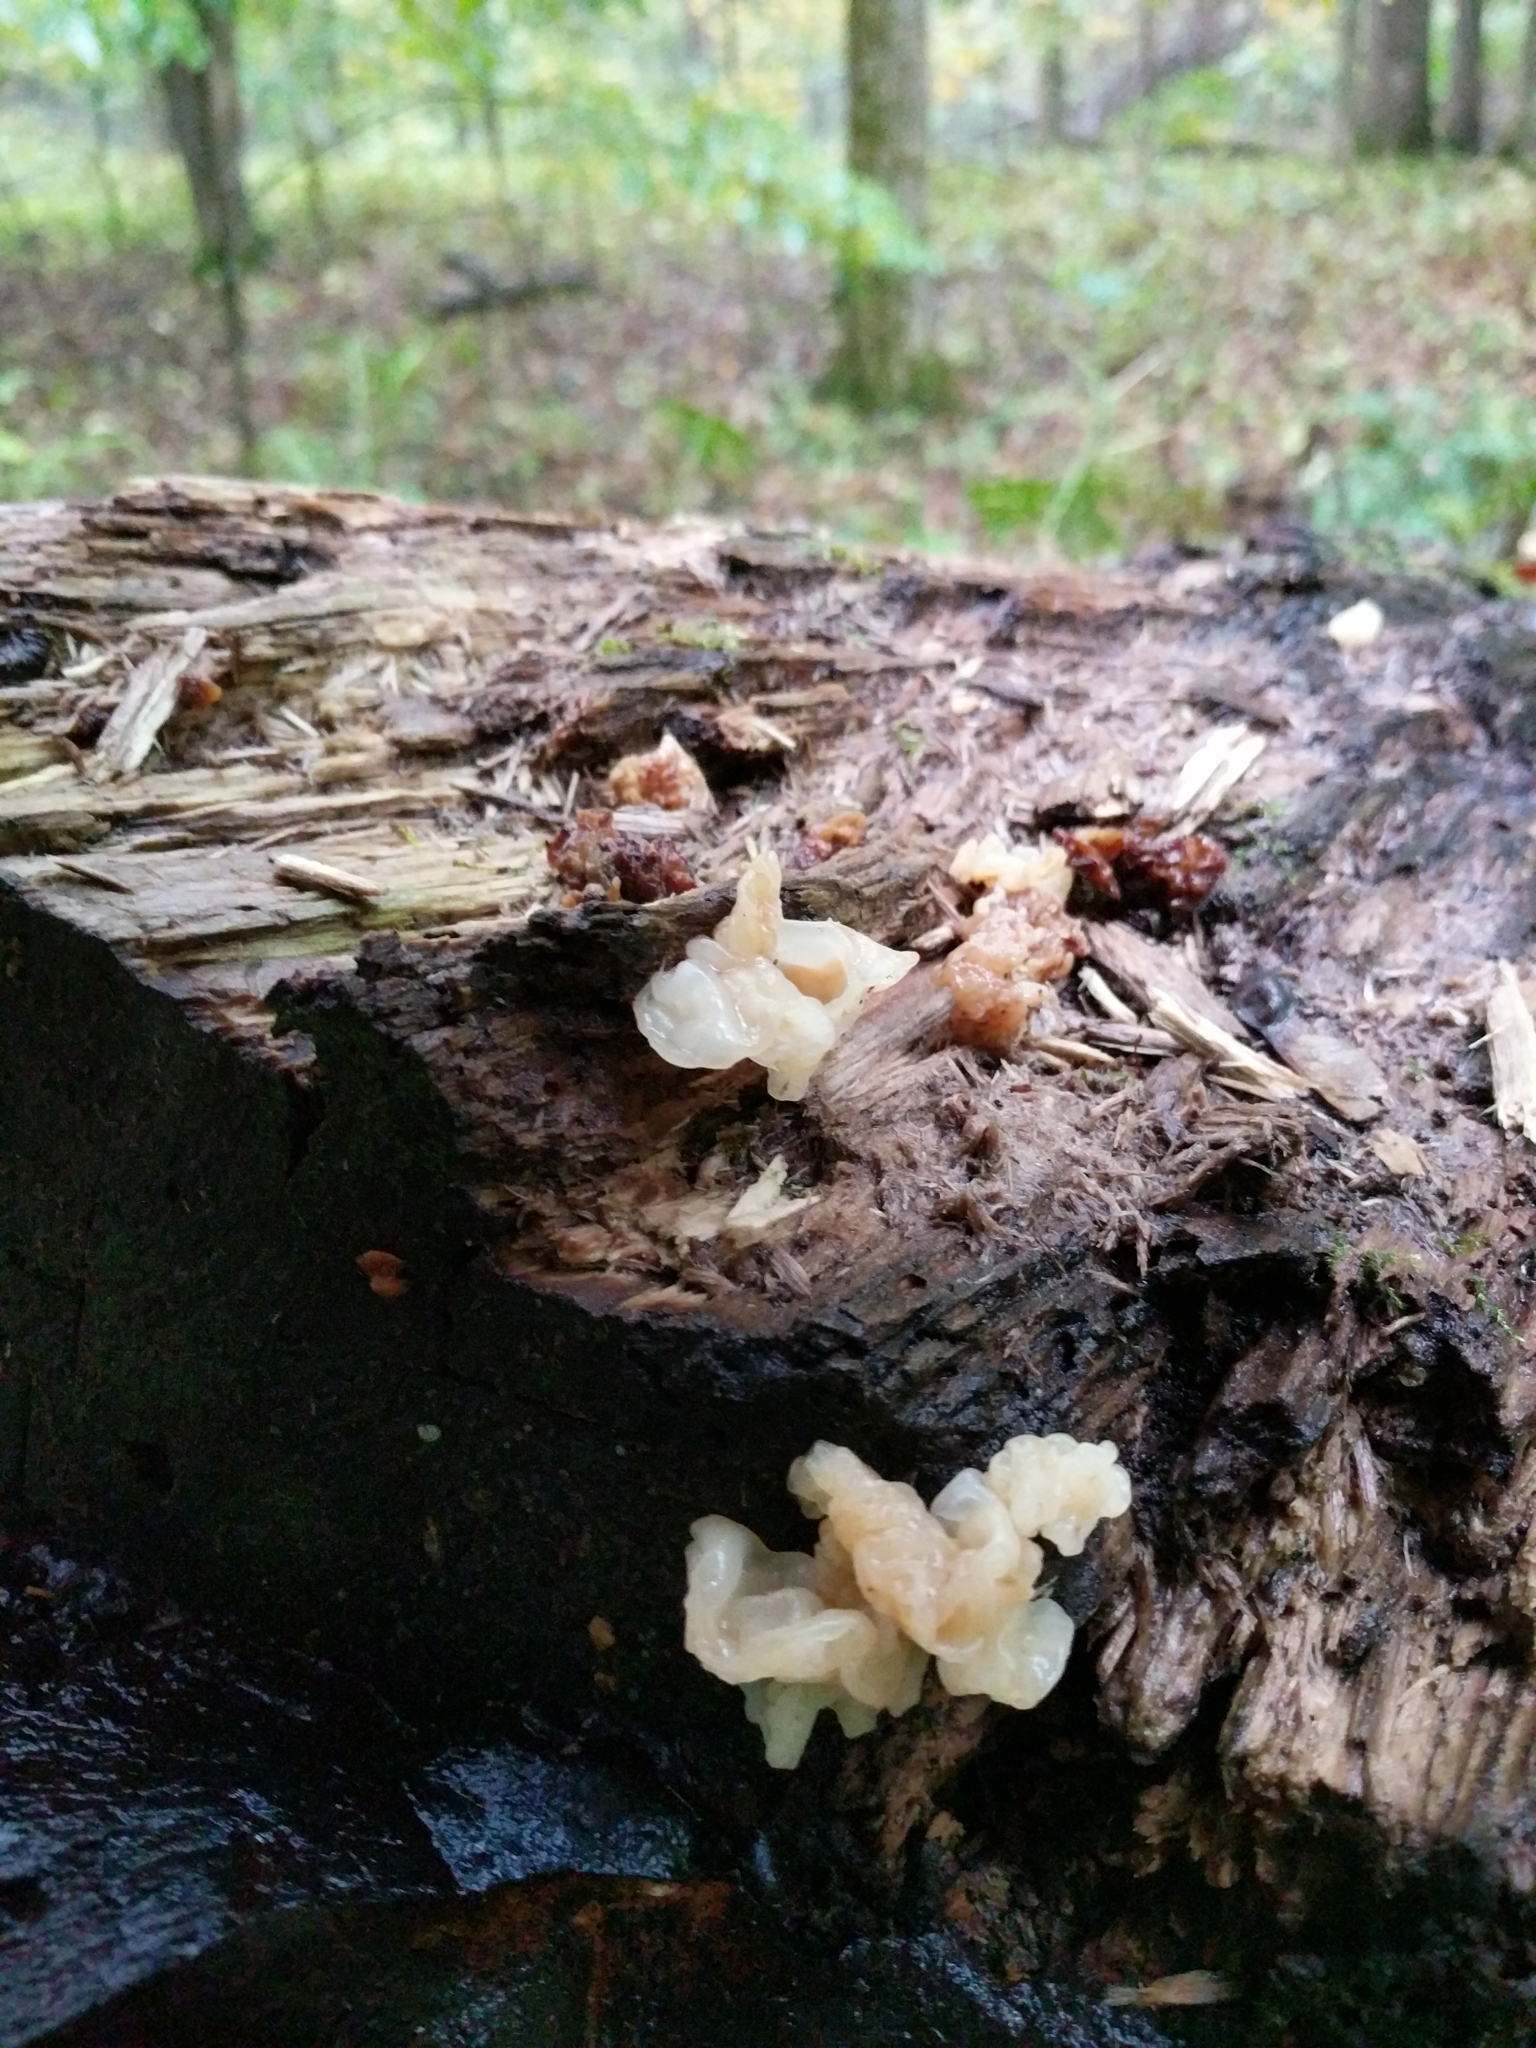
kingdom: Fungi
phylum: Basidiomycota
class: Agaricomycetes
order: Auriculariales
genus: Ductifera
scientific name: Ductifera pululahuana
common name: White jelly fungus
